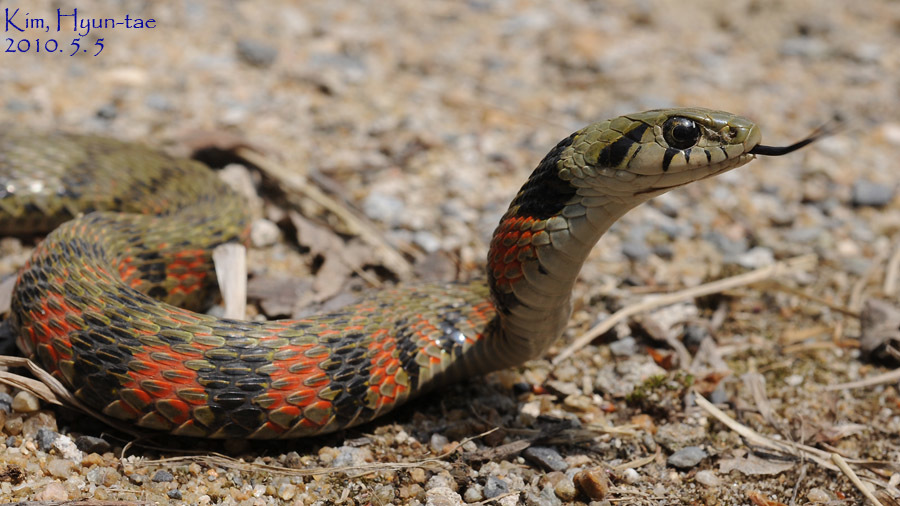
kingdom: Animalia
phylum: Chordata
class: Squamata
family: Colubridae
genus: Rhabdophis
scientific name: Rhabdophis tigrinus
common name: Tiger keelback
